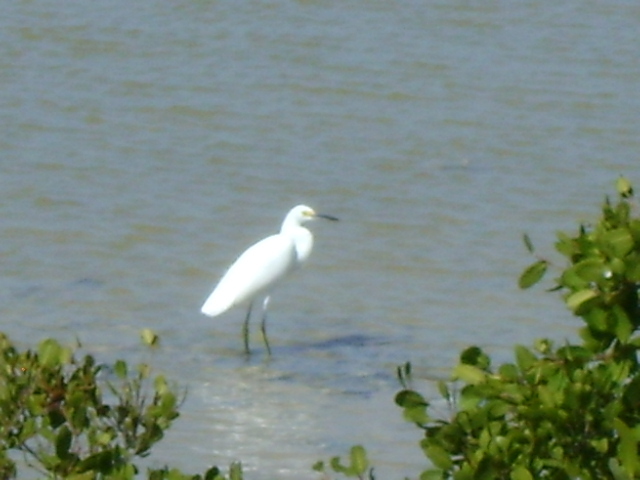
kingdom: Animalia
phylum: Chordata
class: Aves
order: Pelecaniformes
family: Ardeidae
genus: Egretta
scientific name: Egretta thula
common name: Snowy egret
